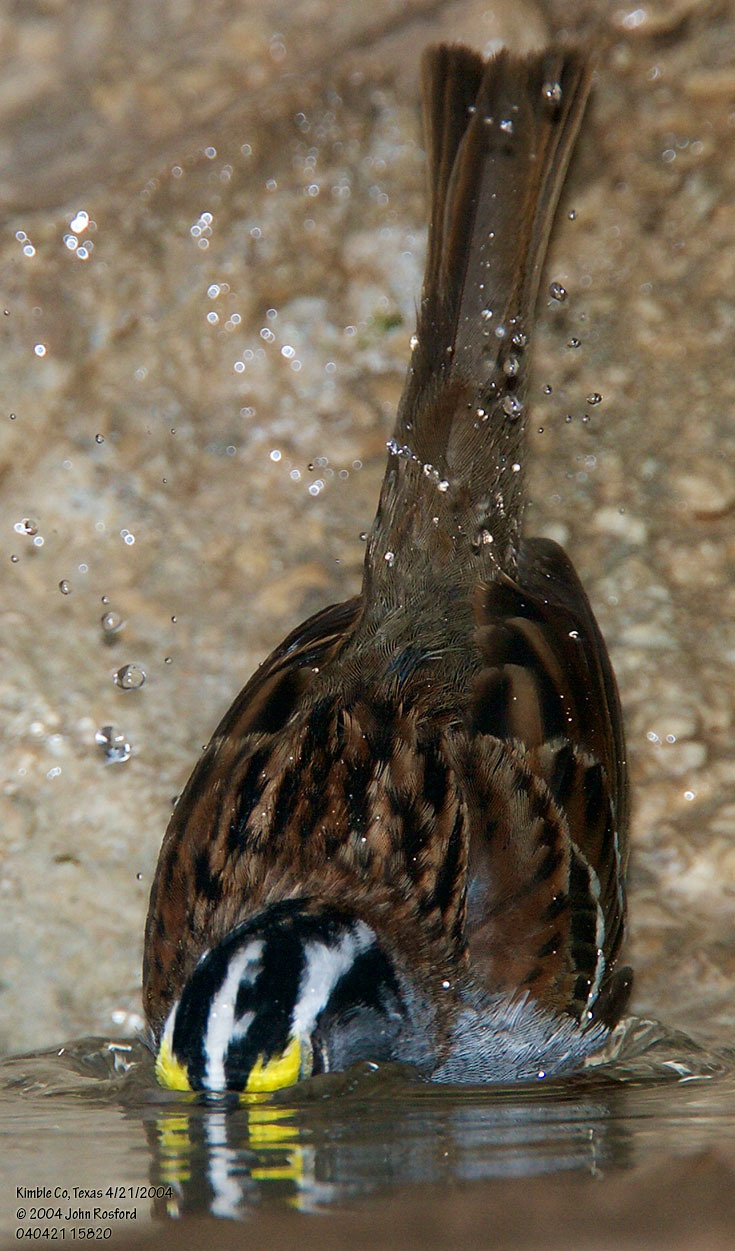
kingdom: Animalia
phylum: Chordata
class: Aves
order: Passeriformes
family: Passerellidae
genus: Zonotrichia
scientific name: Zonotrichia albicollis
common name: White-throated sparrow
